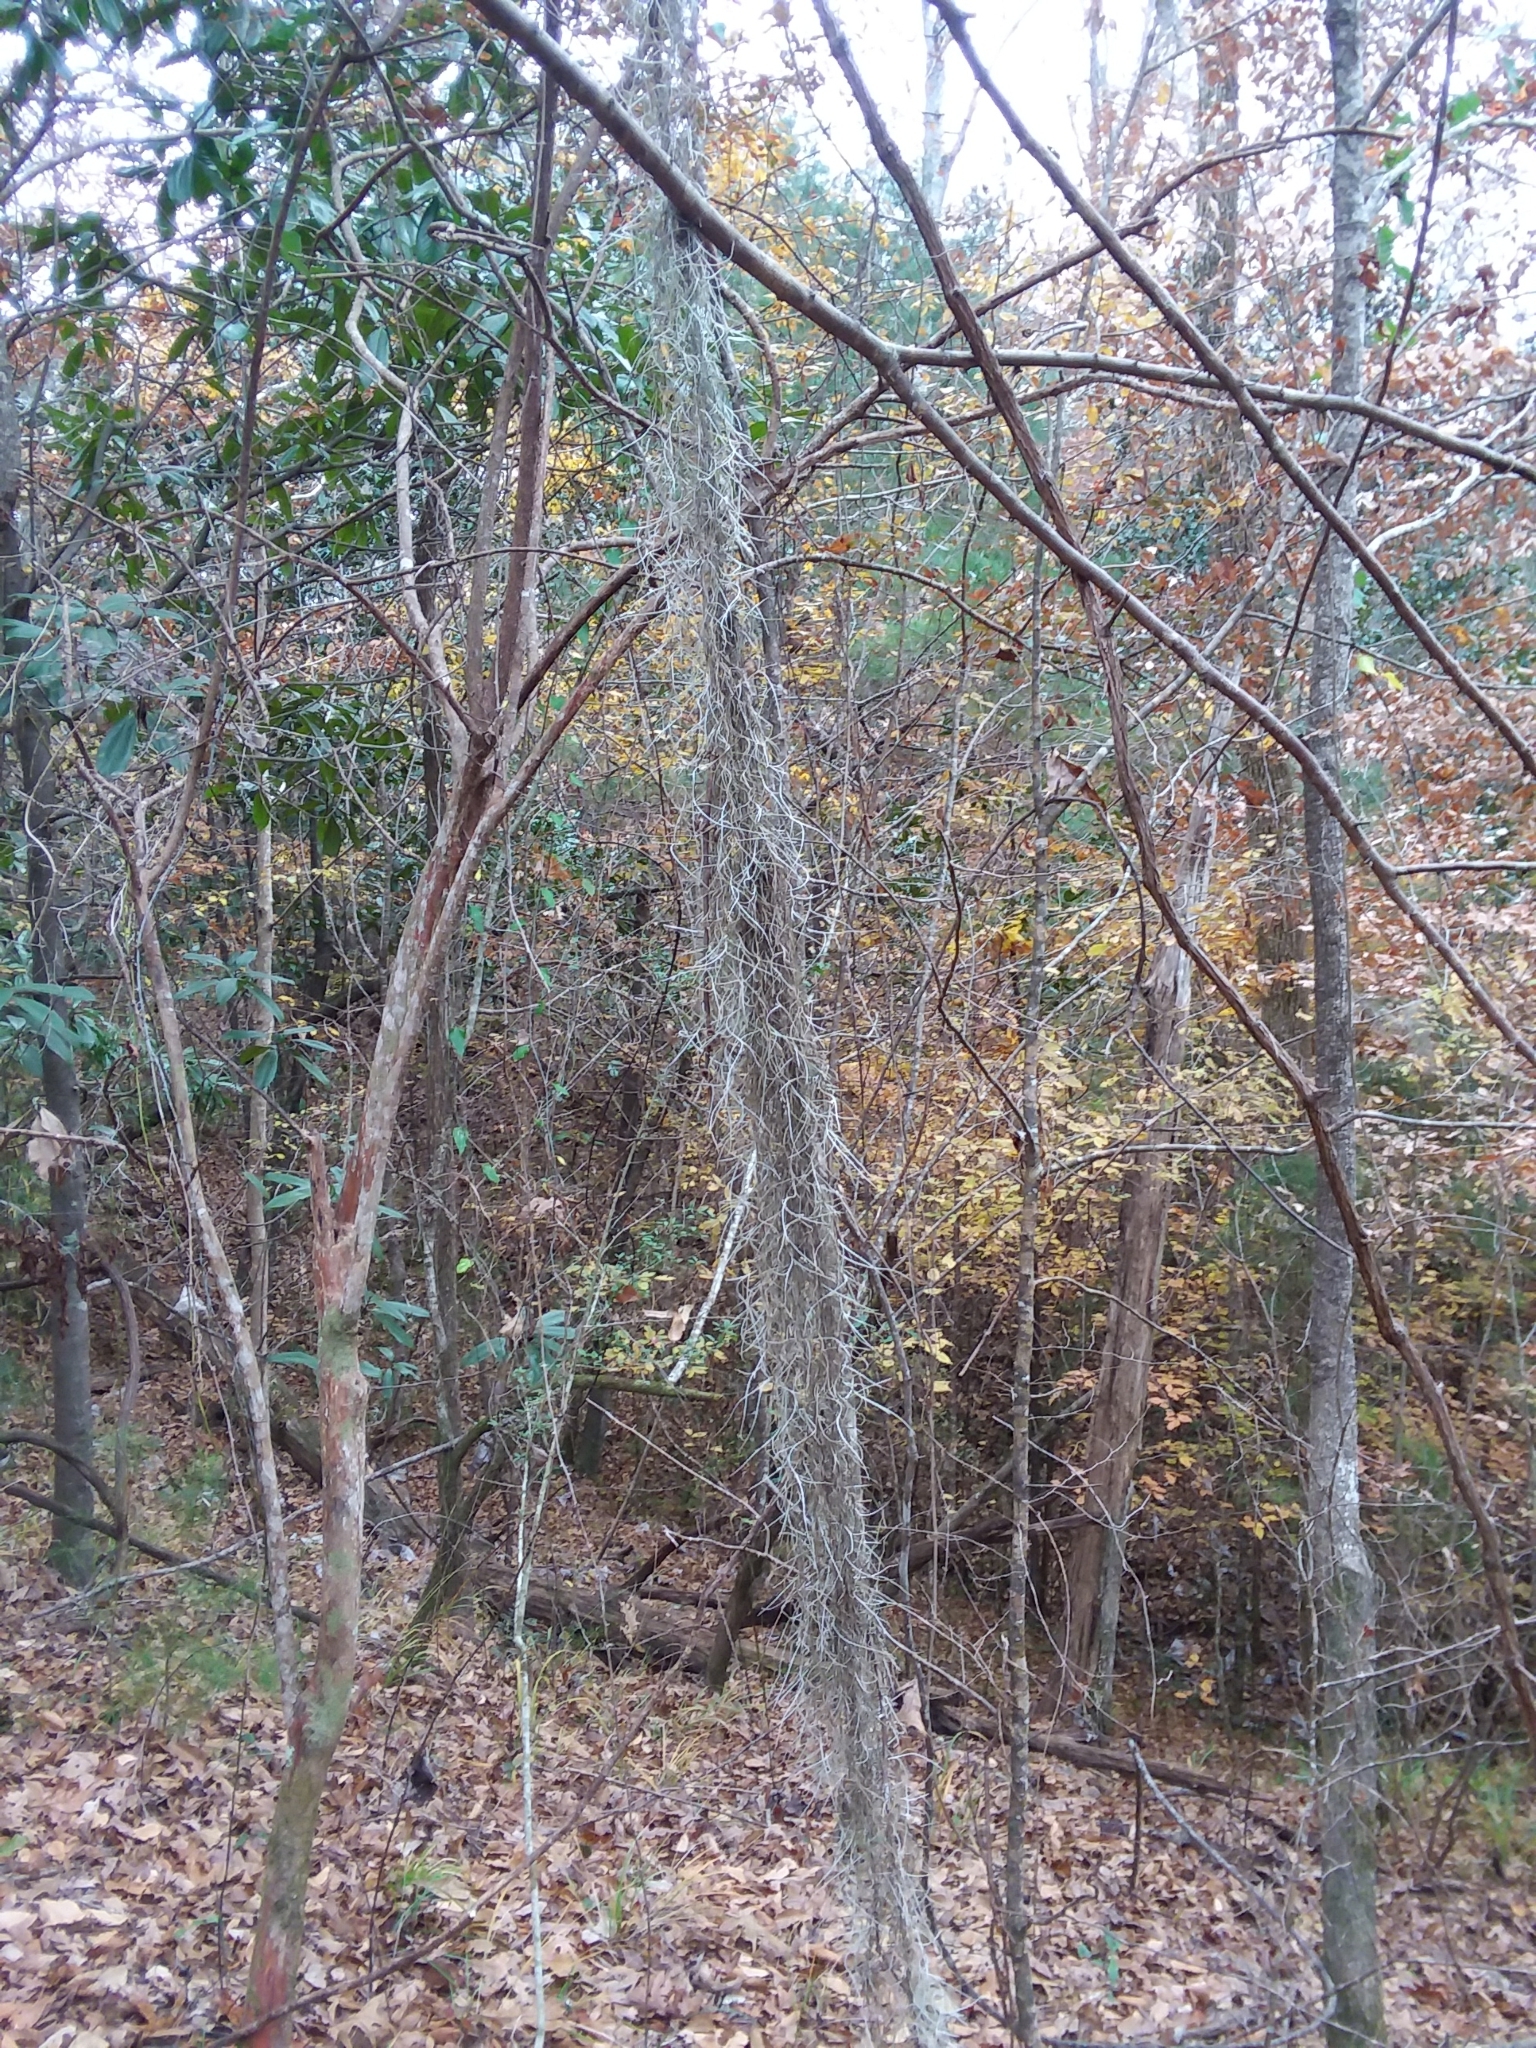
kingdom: Plantae
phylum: Tracheophyta
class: Liliopsida
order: Poales
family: Bromeliaceae
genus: Tillandsia
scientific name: Tillandsia usneoides
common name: Spanish moss
